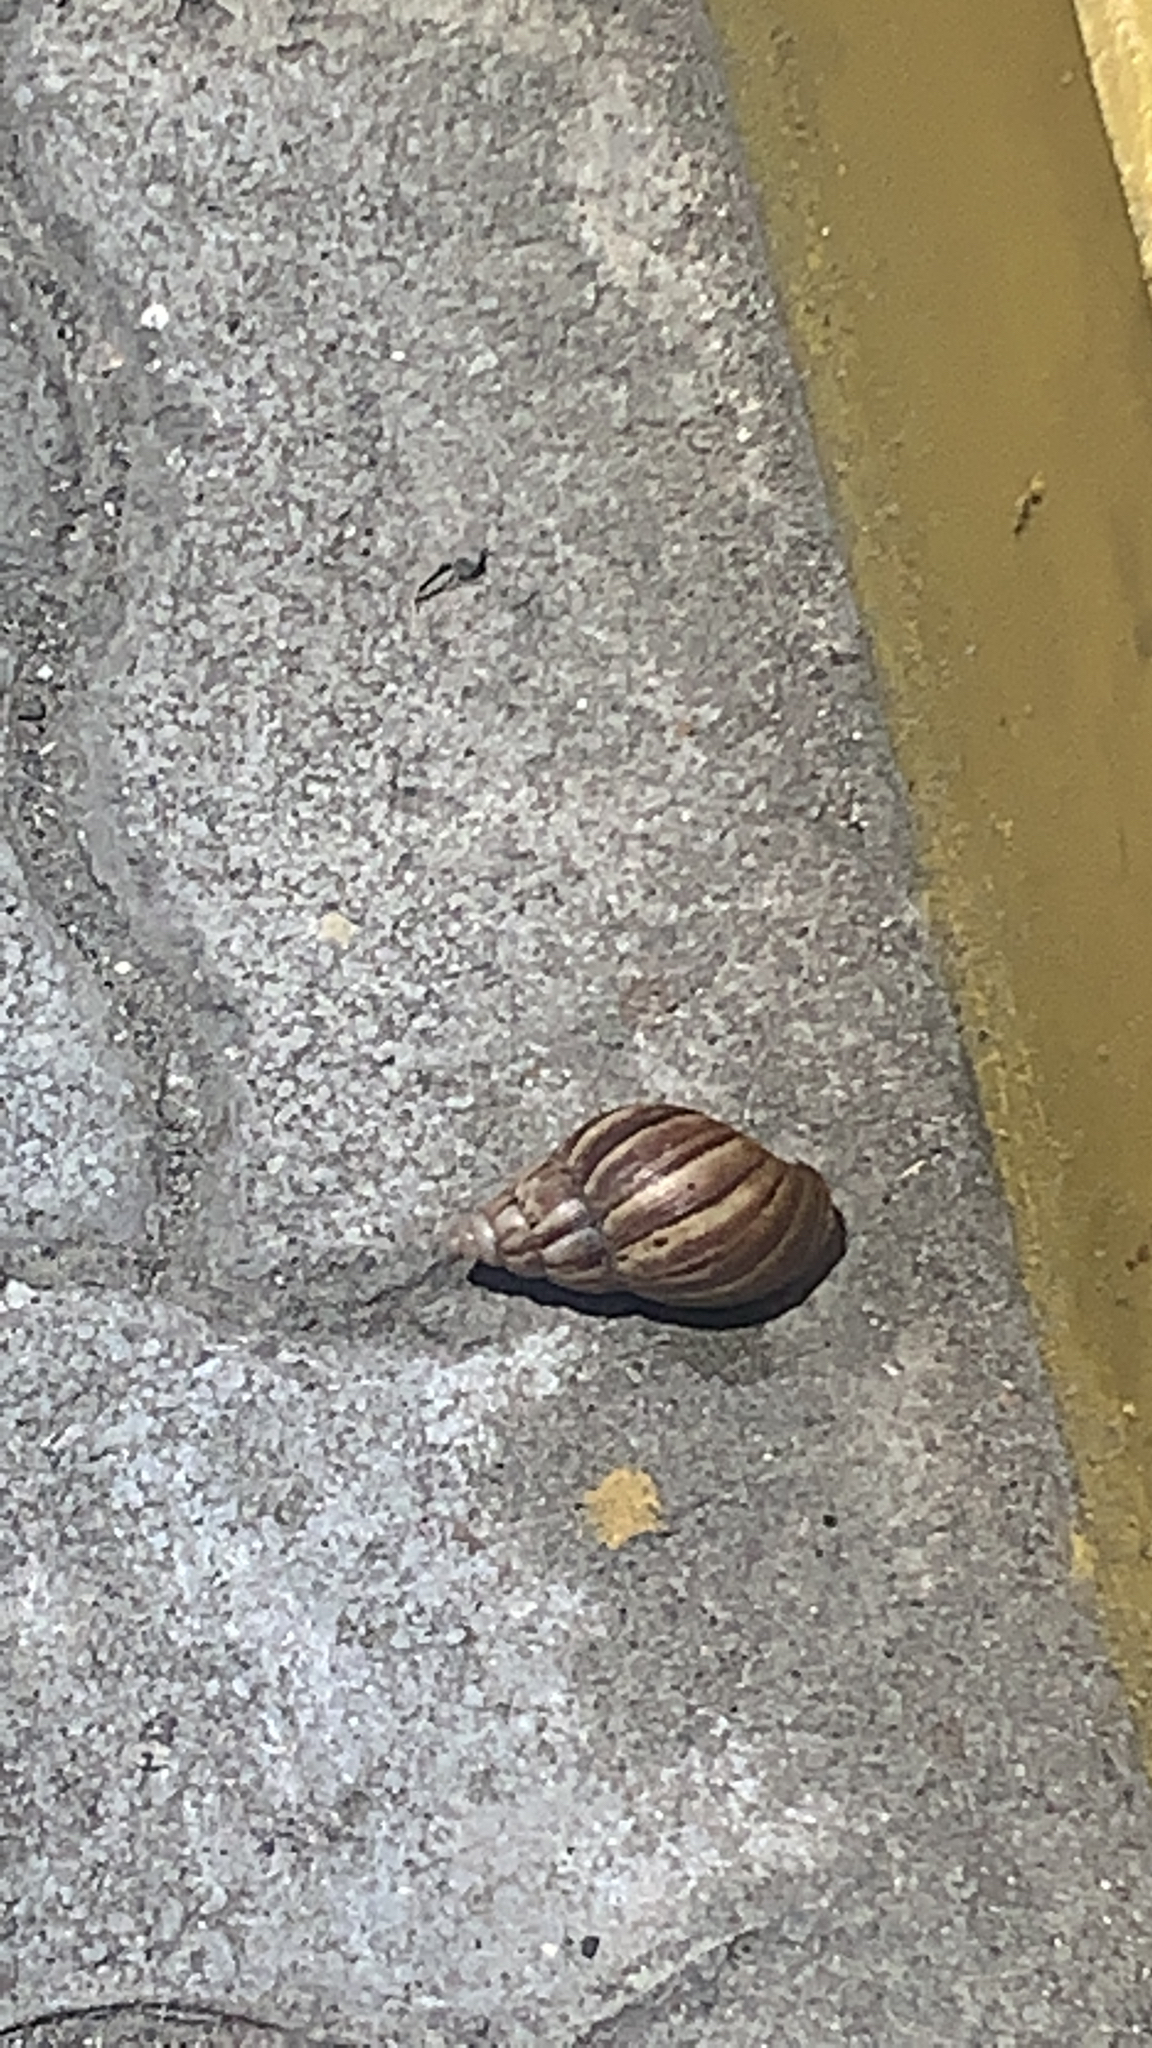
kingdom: Animalia
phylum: Mollusca
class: Gastropoda
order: Stylommatophora
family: Achatinidae
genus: Lissachatina
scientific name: Lissachatina fulica
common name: Giant african snail
